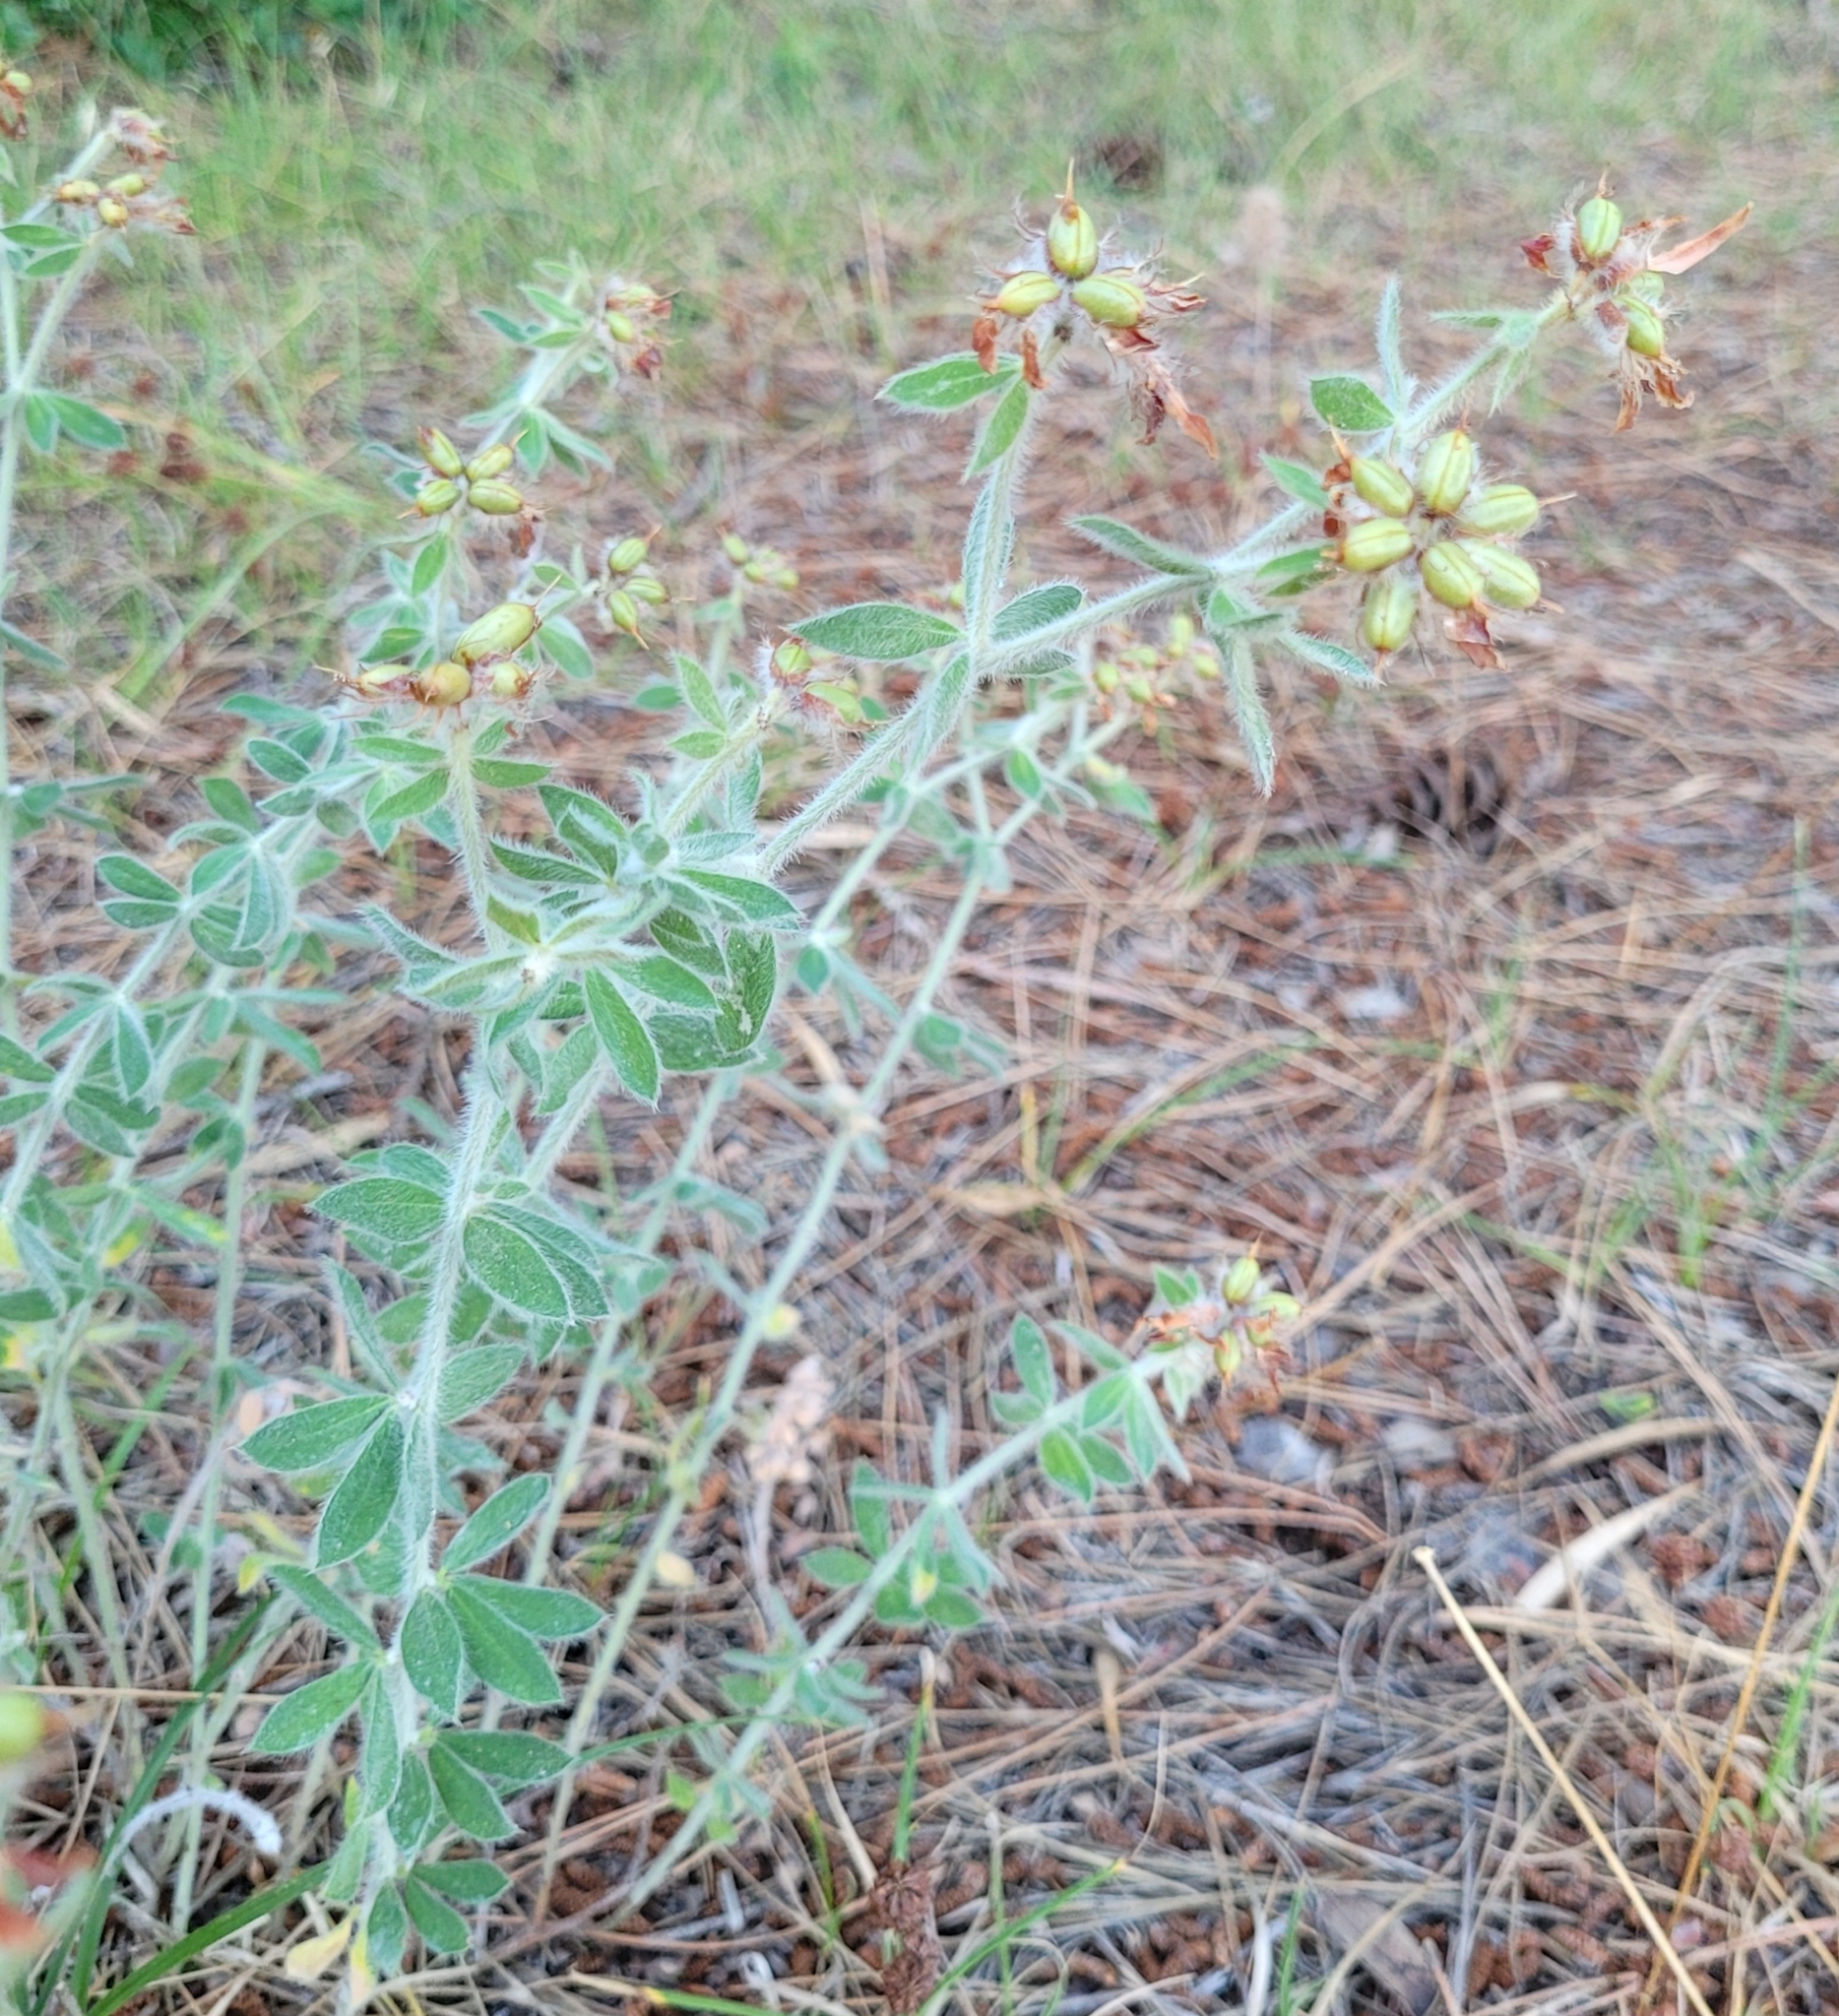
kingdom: Plantae
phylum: Tracheophyta
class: Magnoliopsida
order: Fabales
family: Fabaceae
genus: Lotus
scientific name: Lotus hirsutus
